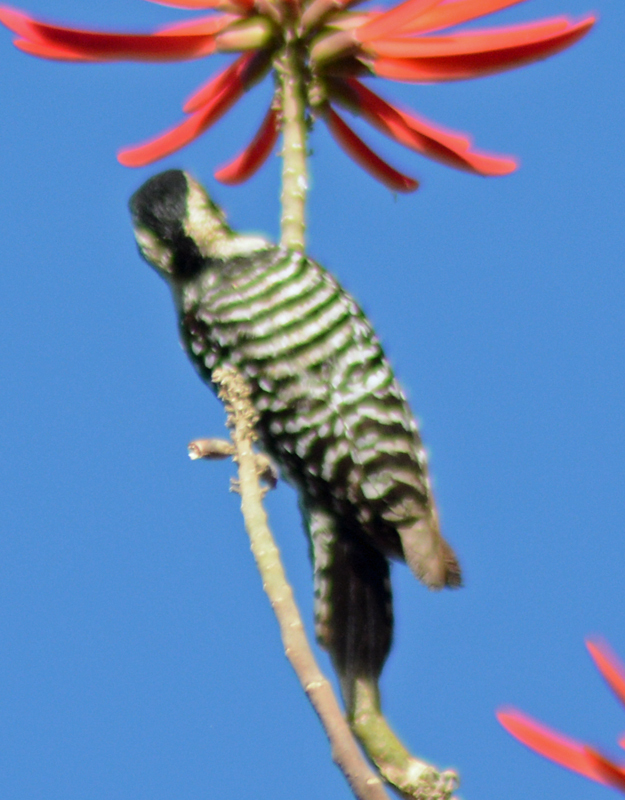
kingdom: Animalia
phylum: Chordata
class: Aves
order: Piciformes
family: Picidae
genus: Dryobates
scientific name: Dryobates scalaris
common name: Ladder-backed woodpecker
